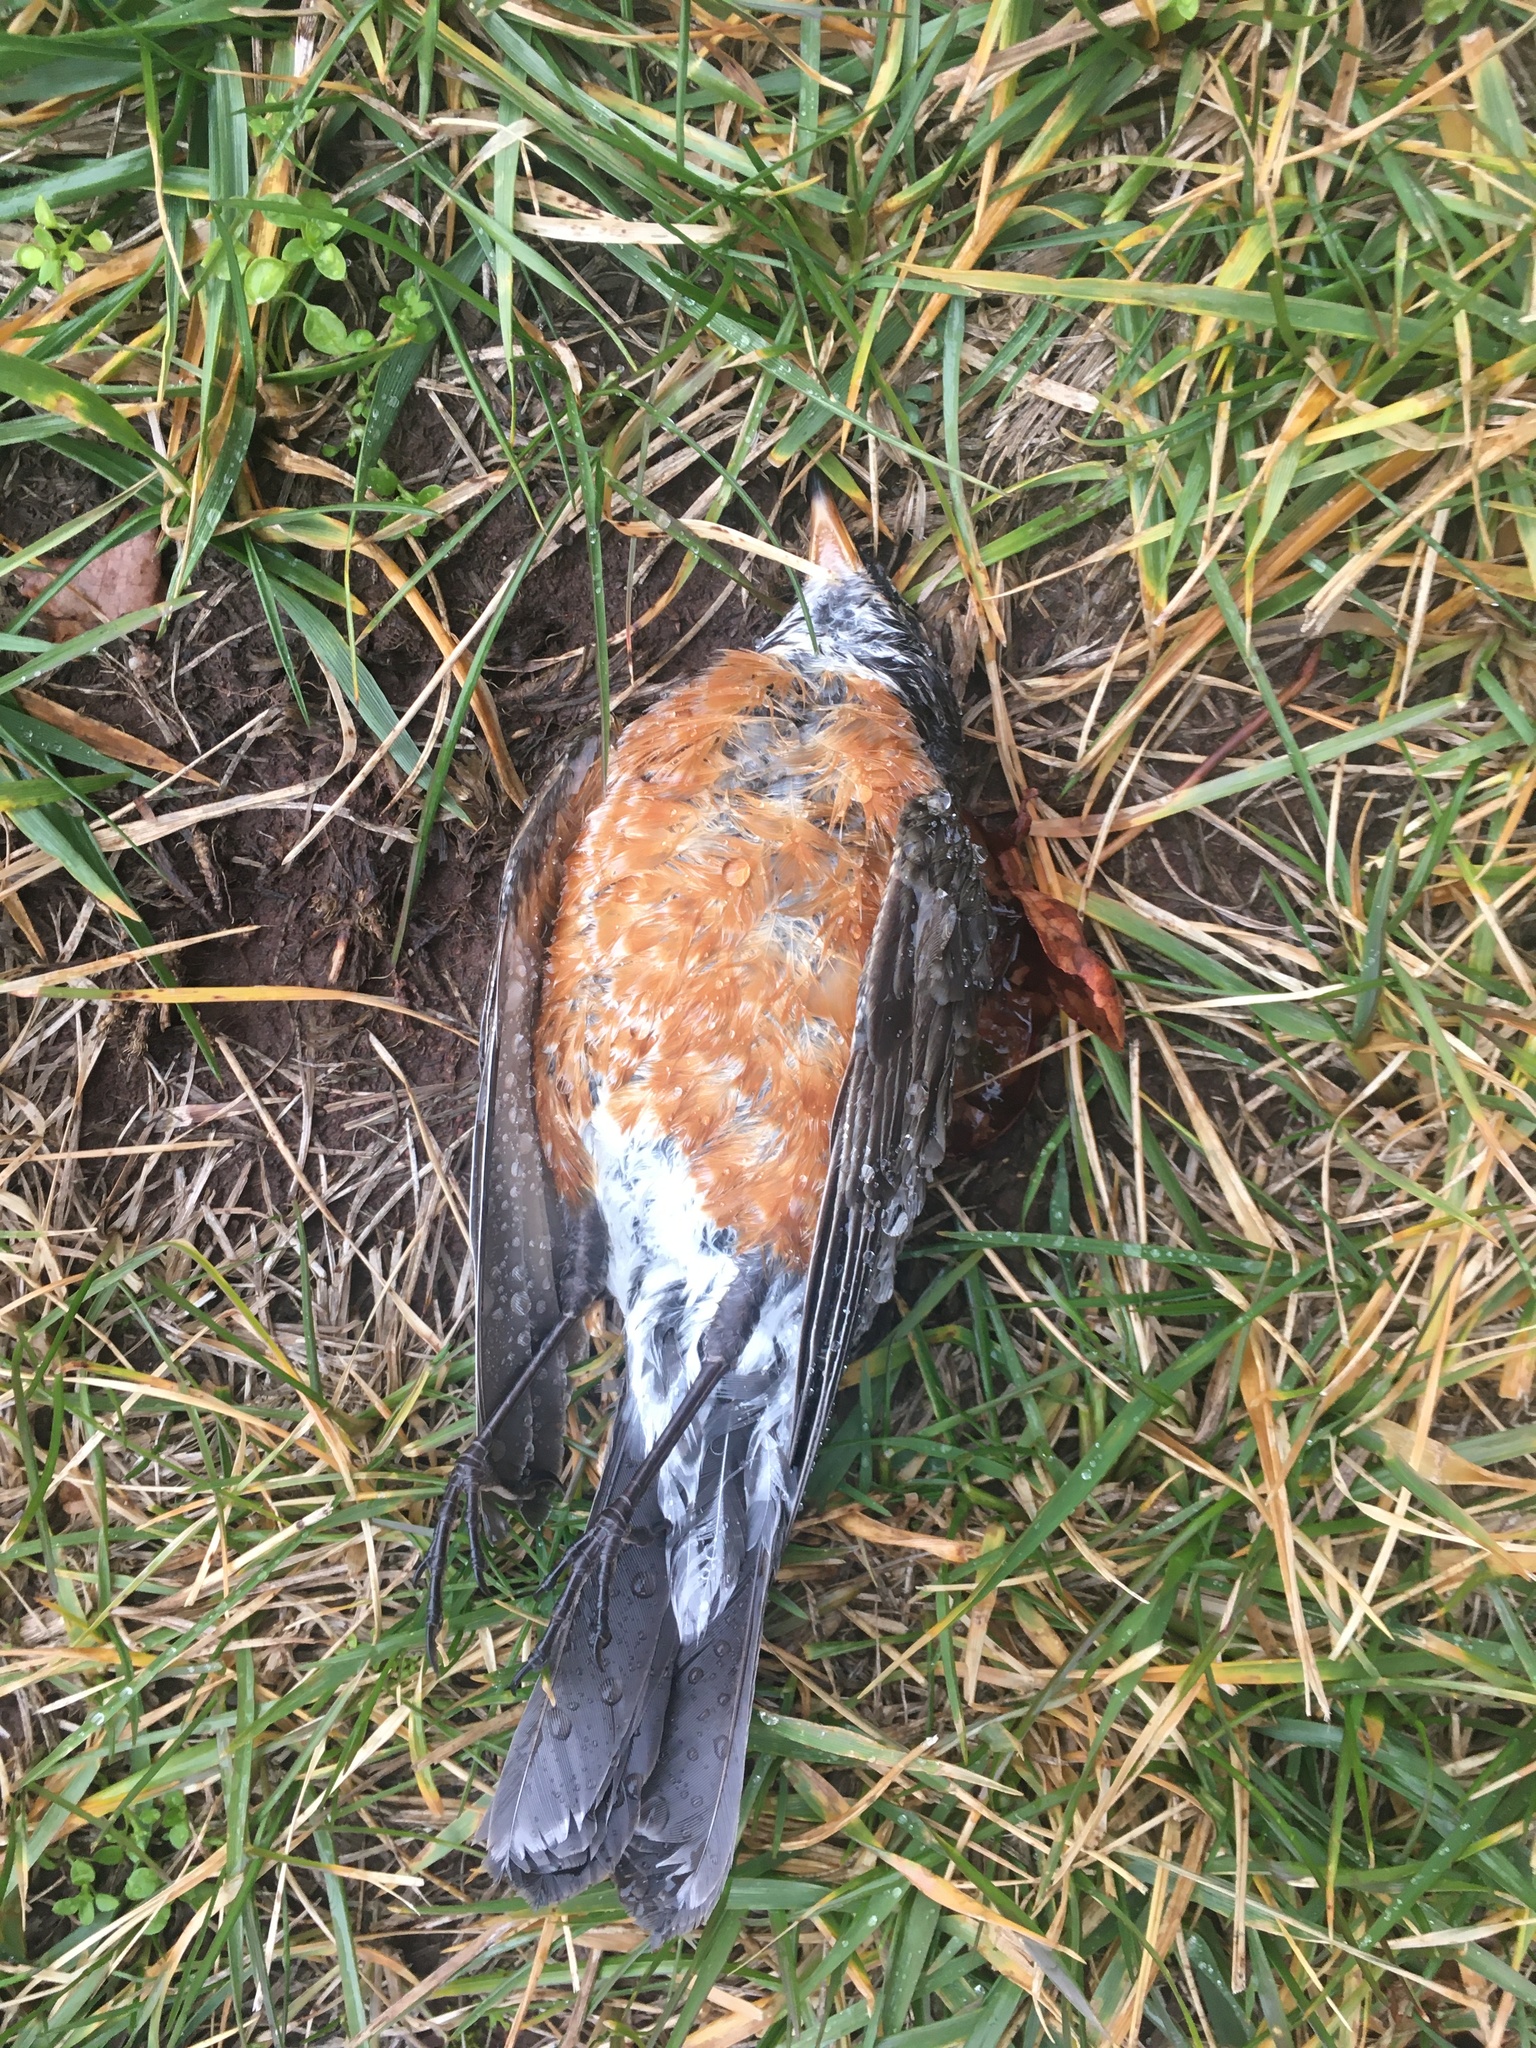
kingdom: Animalia
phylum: Chordata
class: Aves
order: Passeriformes
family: Turdidae
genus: Turdus
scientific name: Turdus migratorius
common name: American robin
